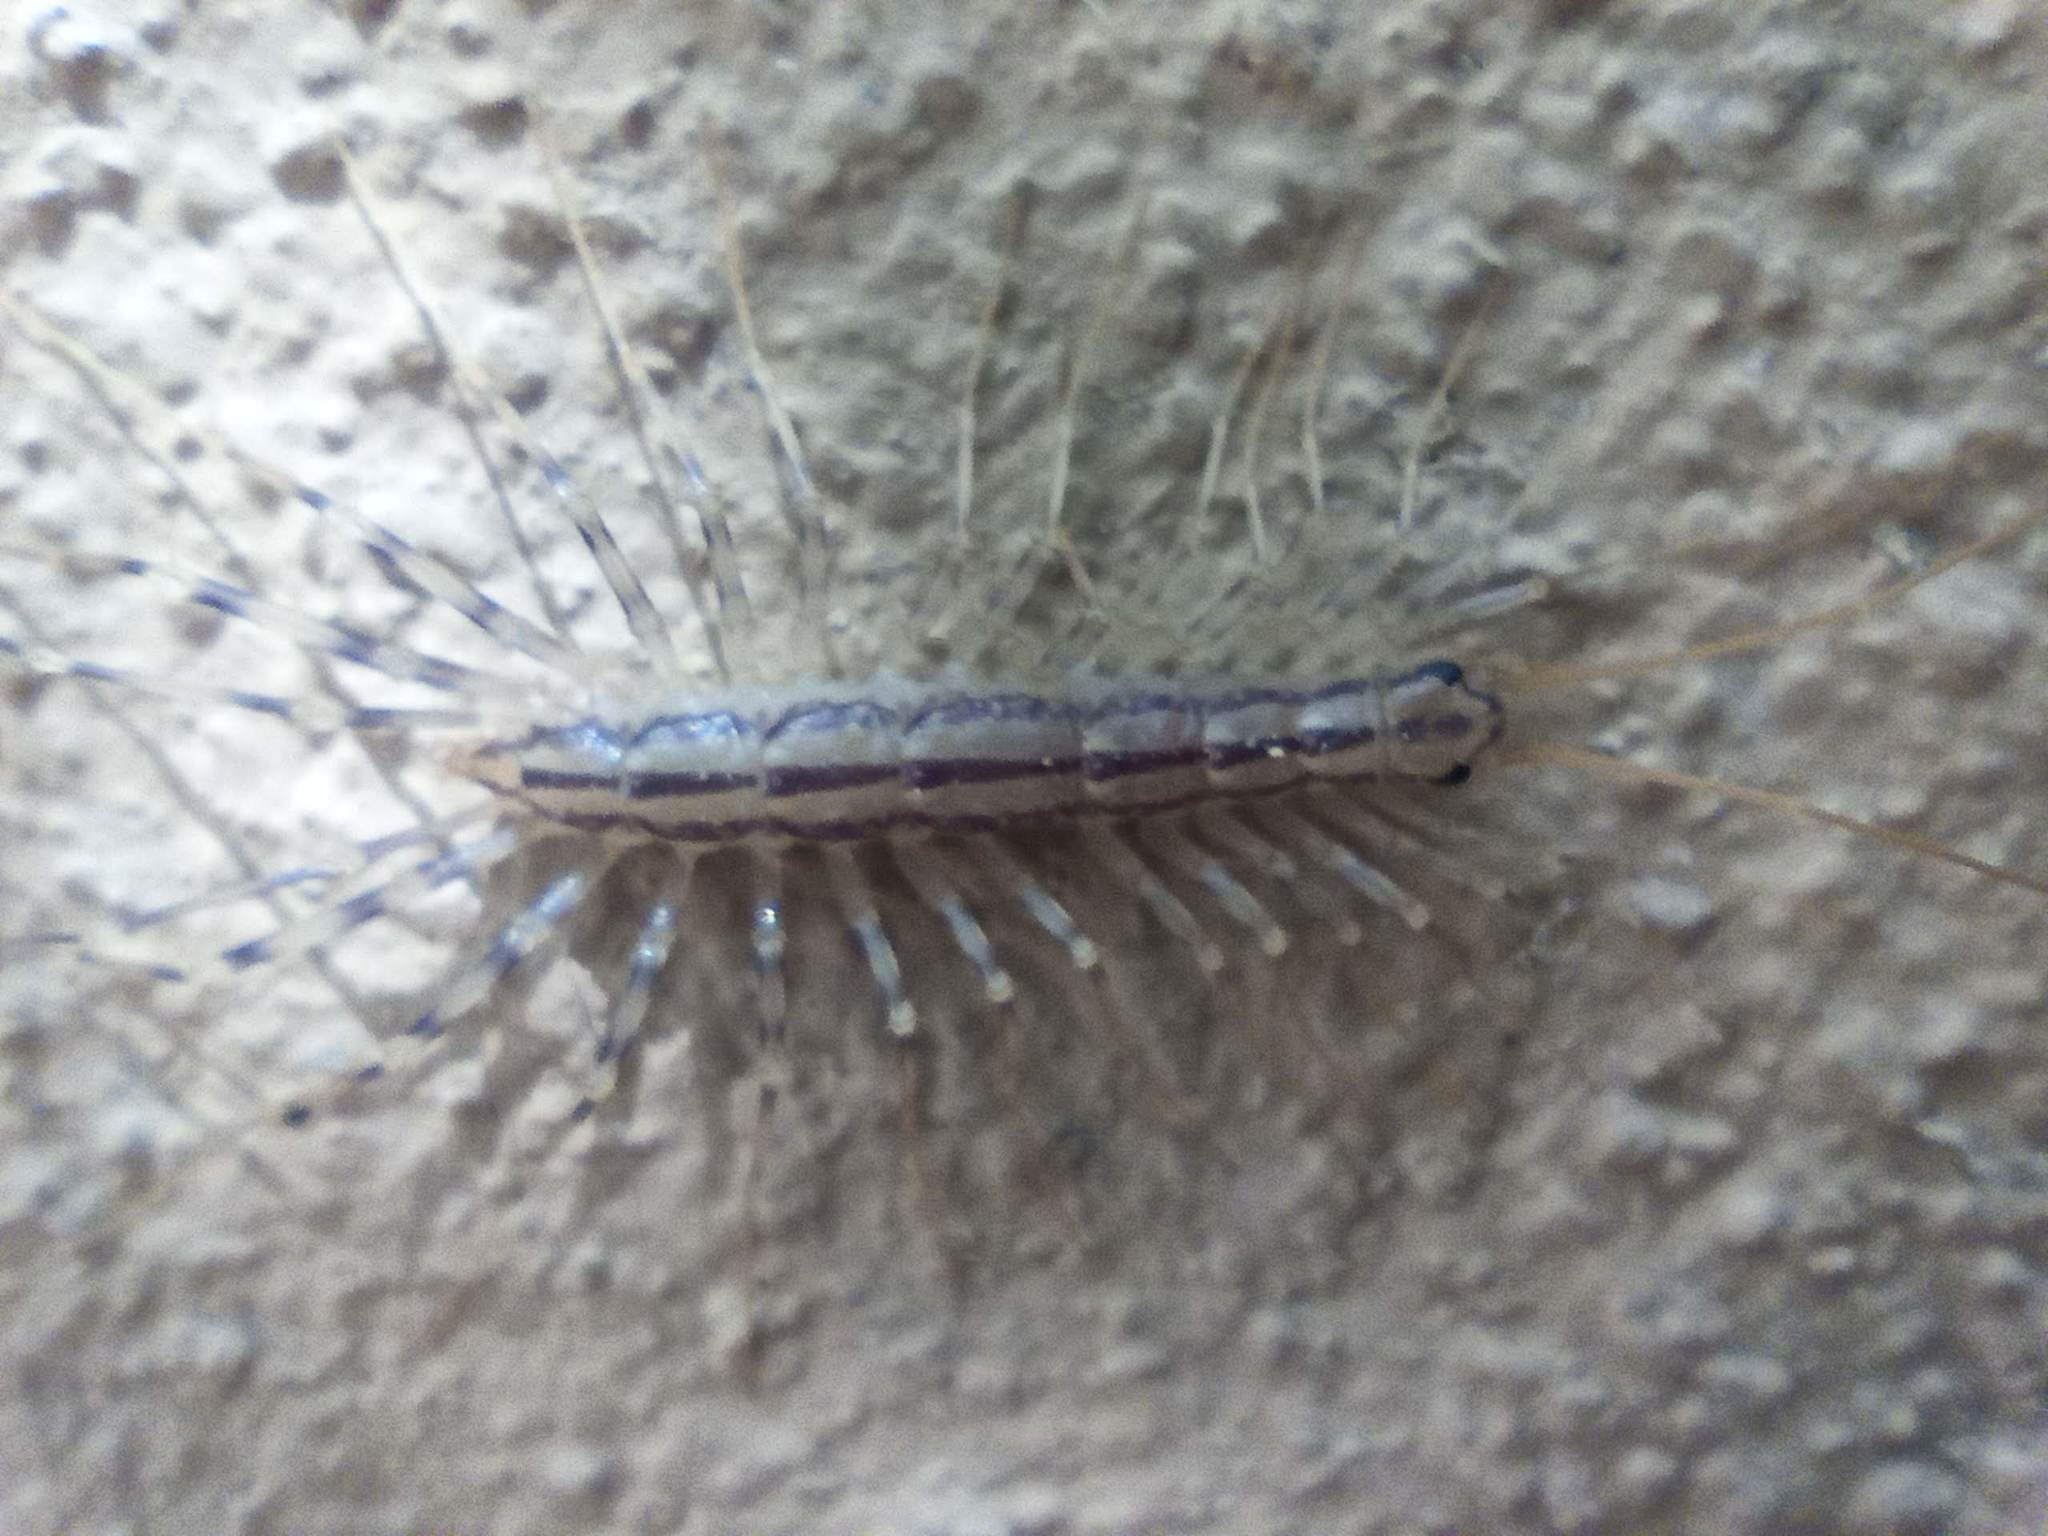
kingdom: Animalia
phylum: Arthropoda
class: Chilopoda
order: Scutigeromorpha
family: Scutigeridae
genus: Scutigera
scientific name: Scutigera coleoptrata
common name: House centipede
